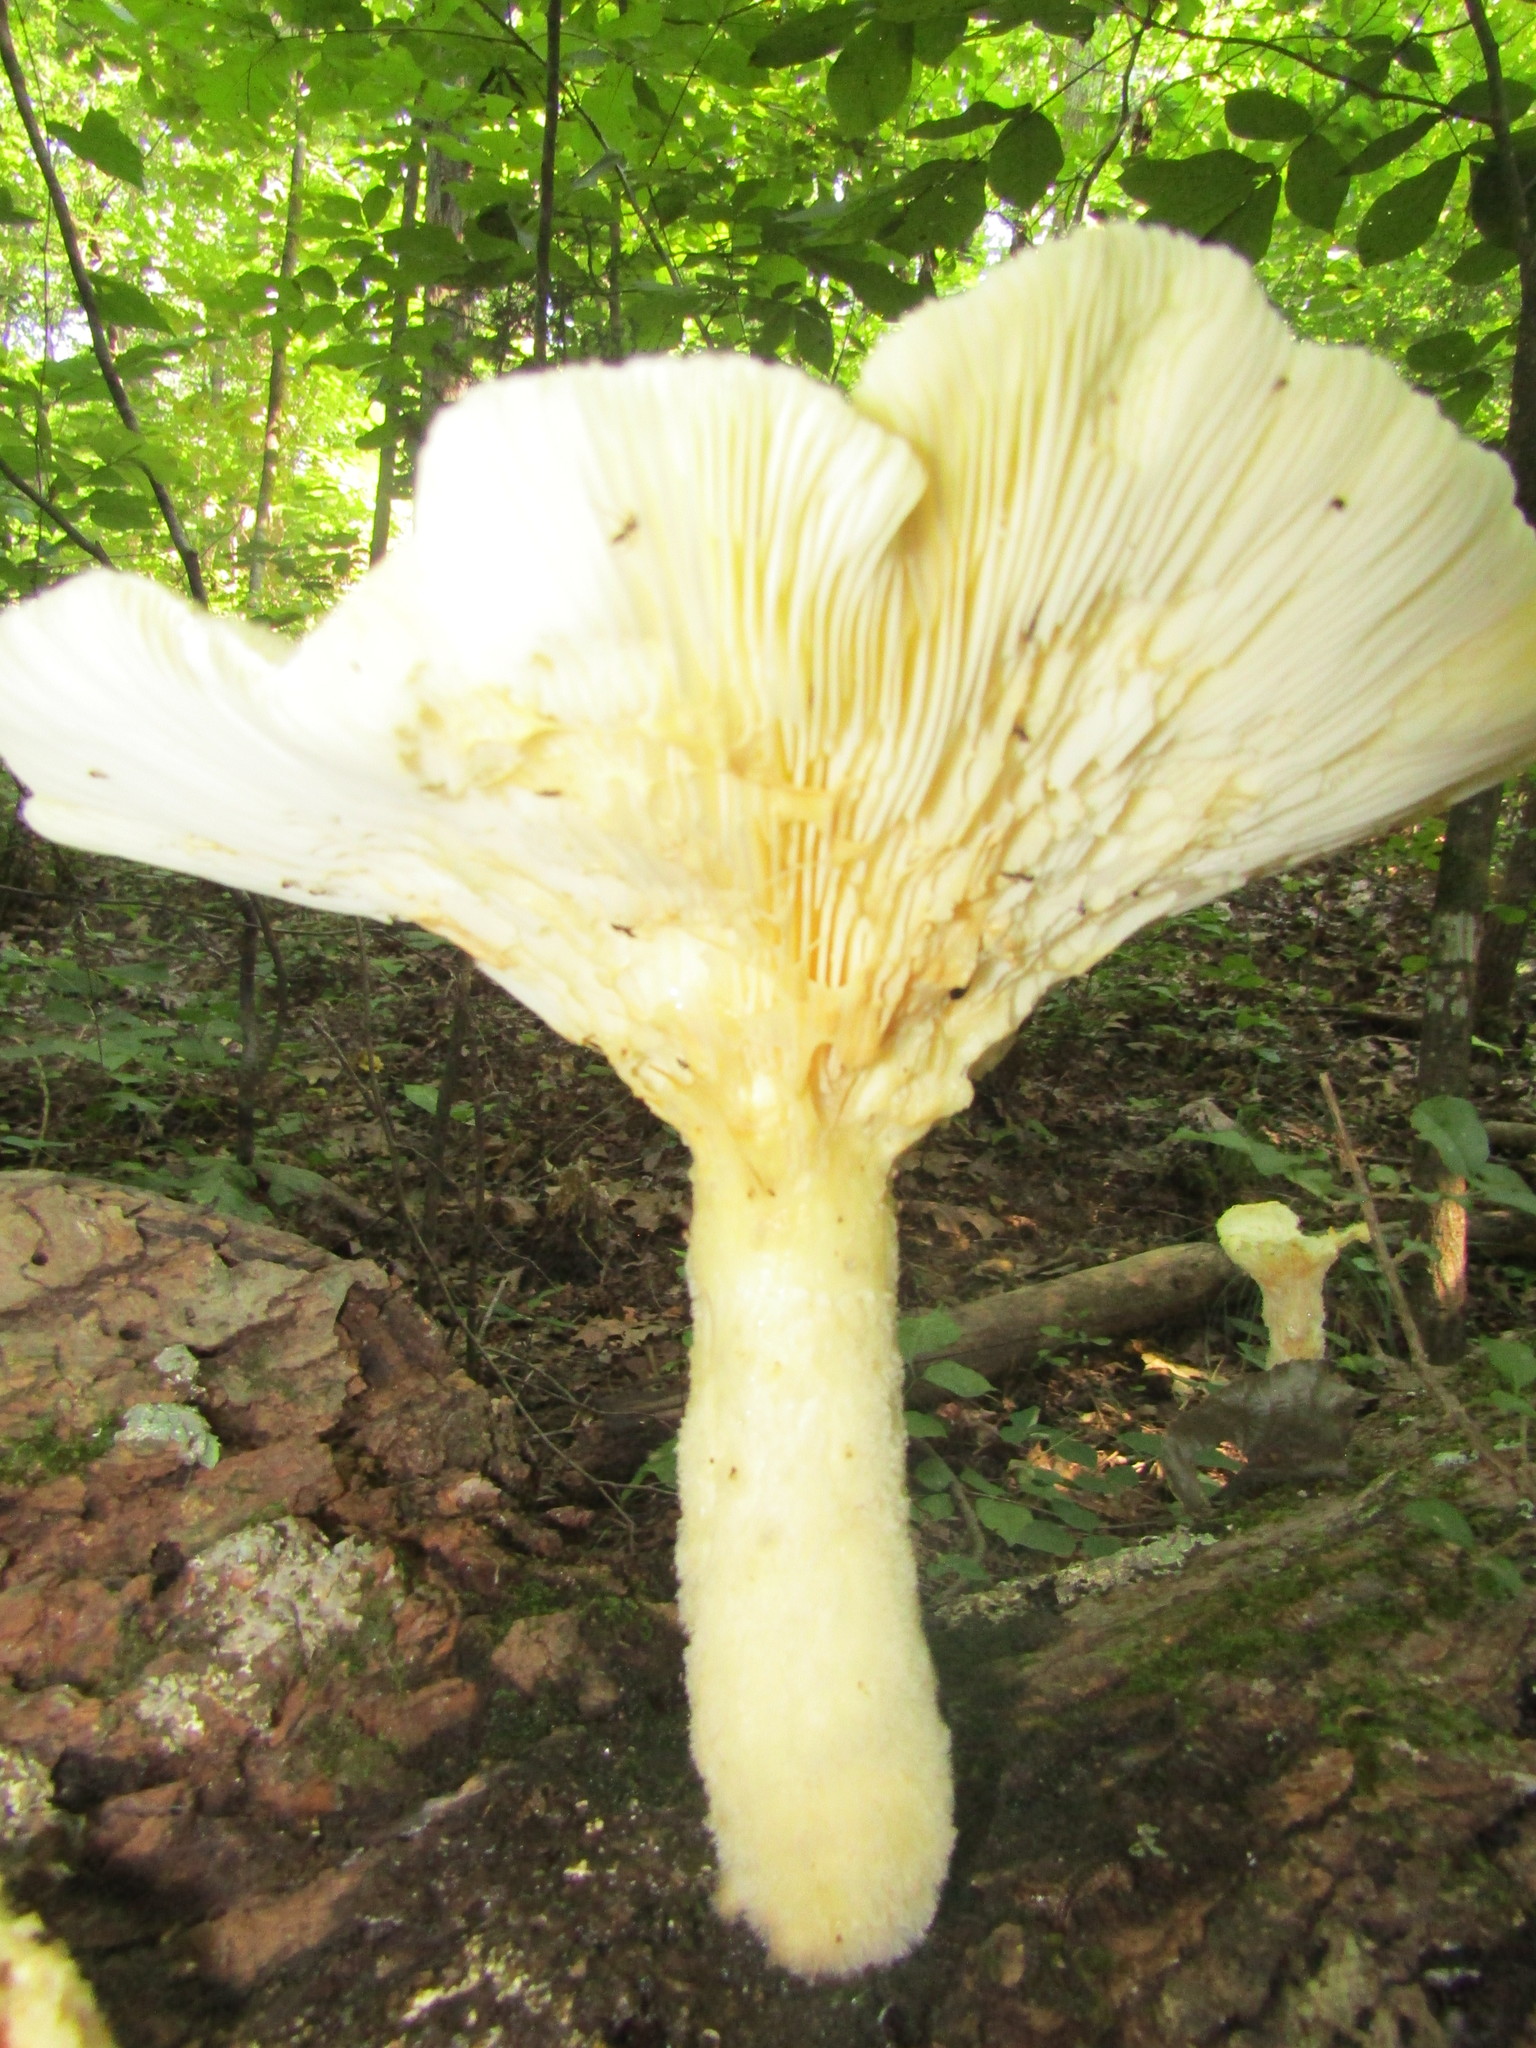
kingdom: Fungi
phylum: Basidiomycota
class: Agaricomycetes
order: Polyporales
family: Polyporaceae
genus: Lentinus
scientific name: Lentinus levis
